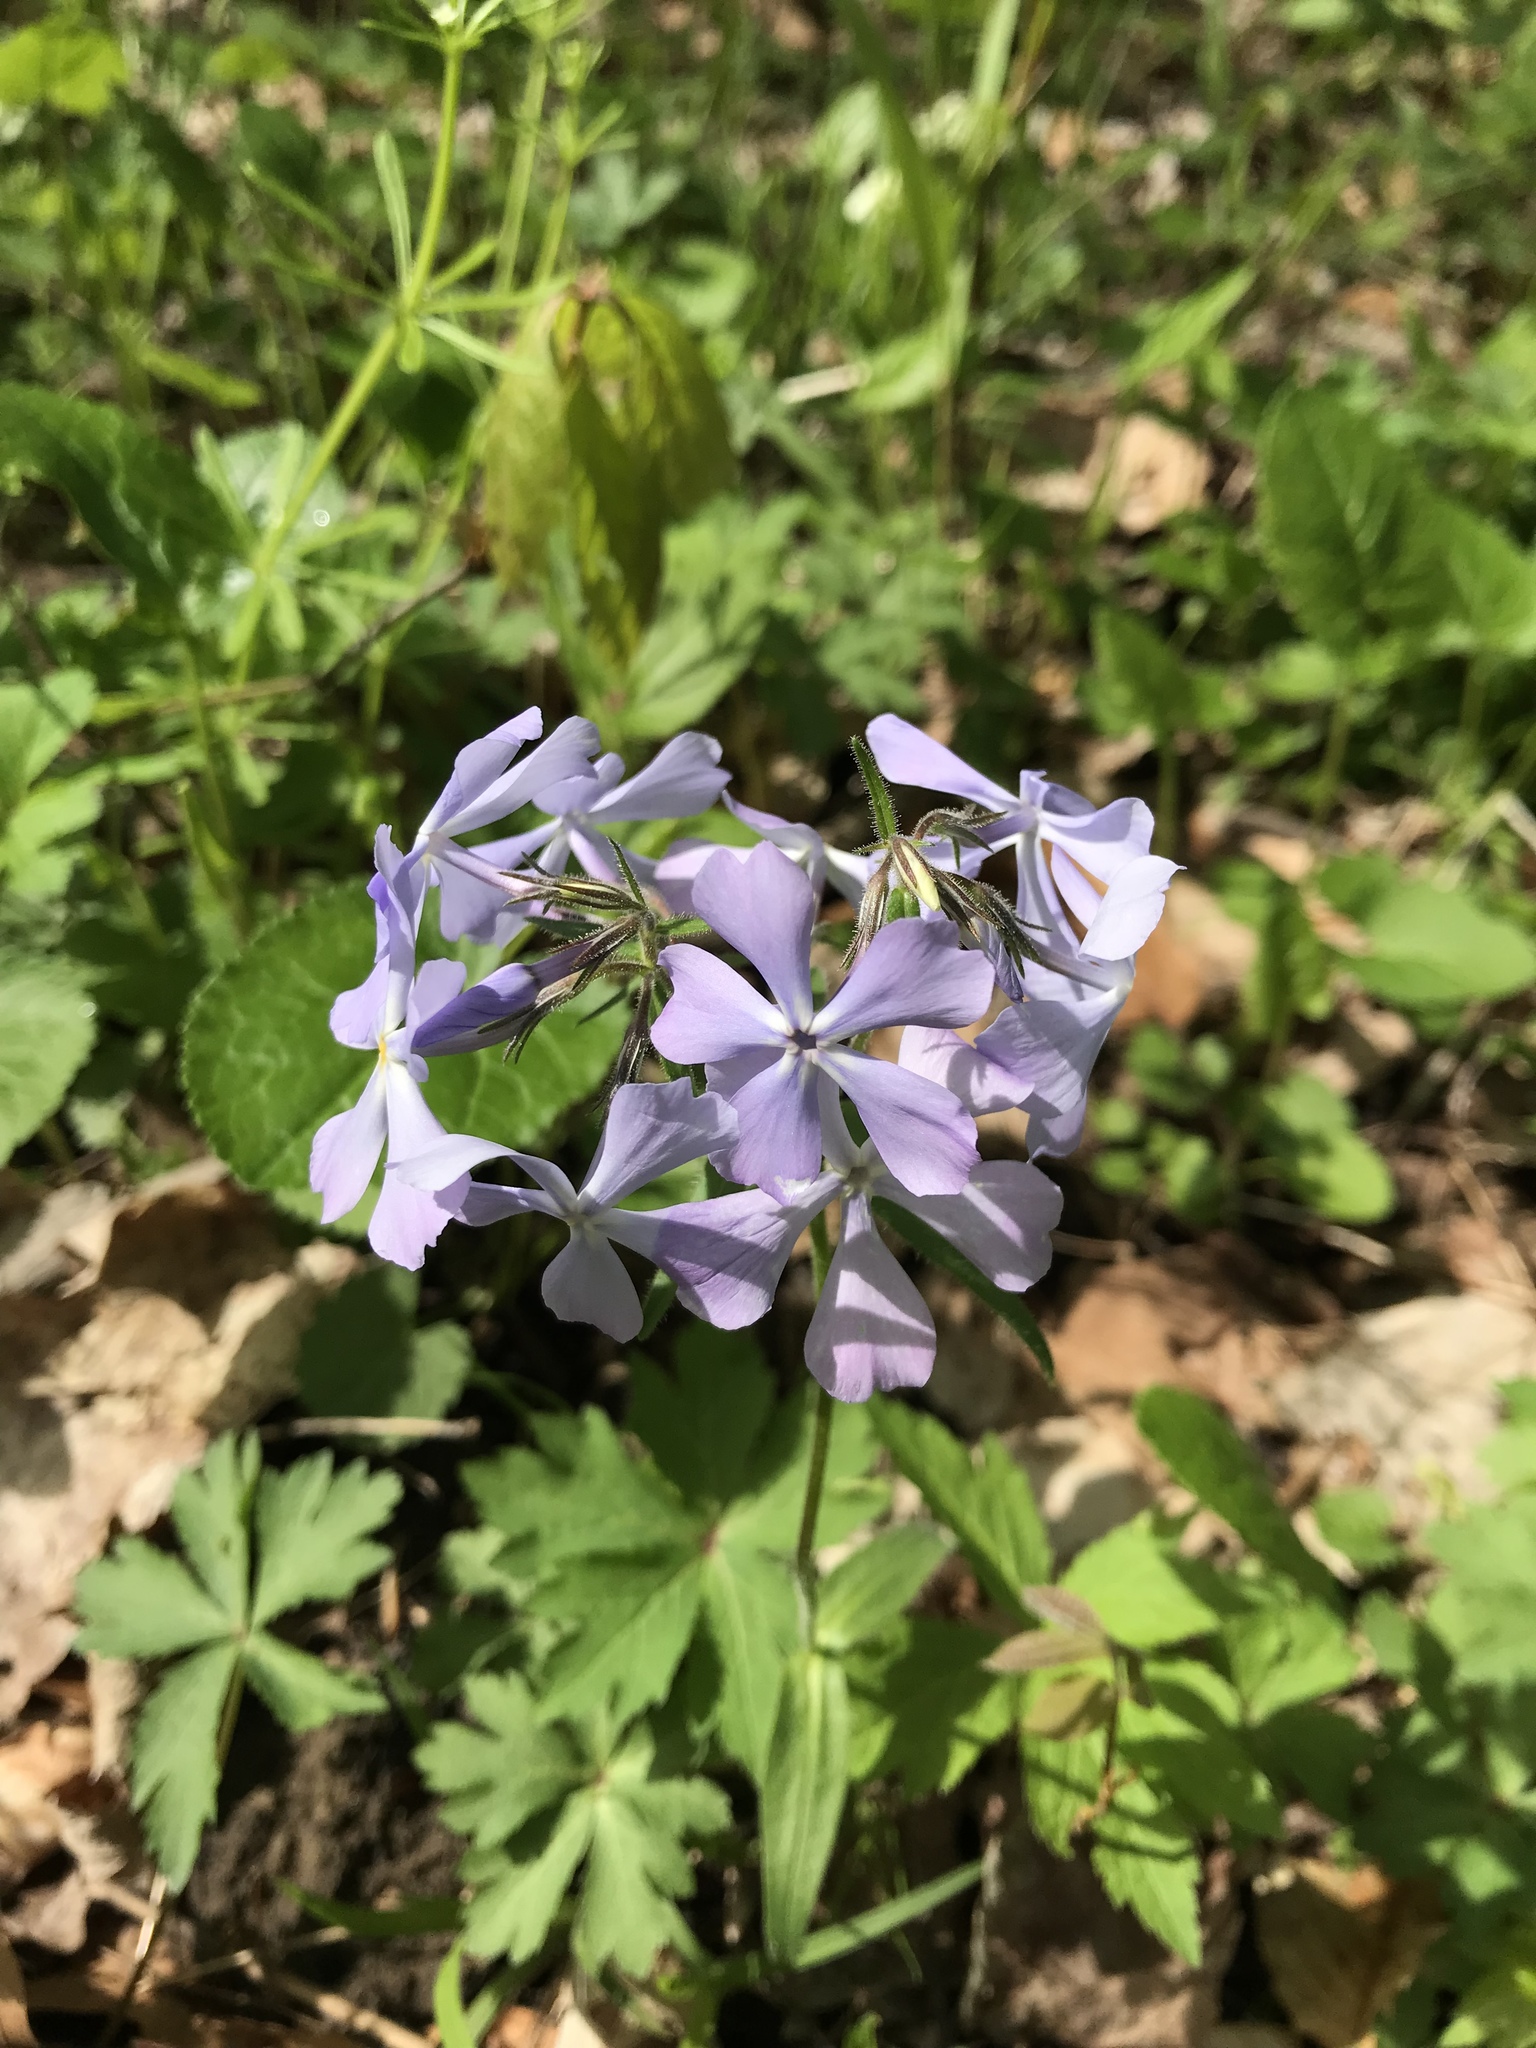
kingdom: Plantae
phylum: Tracheophyta
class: Magnoliopsida
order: Ericales
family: Polemoniaceae
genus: Phlox
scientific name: Phlox divaricata
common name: Blue phlox
